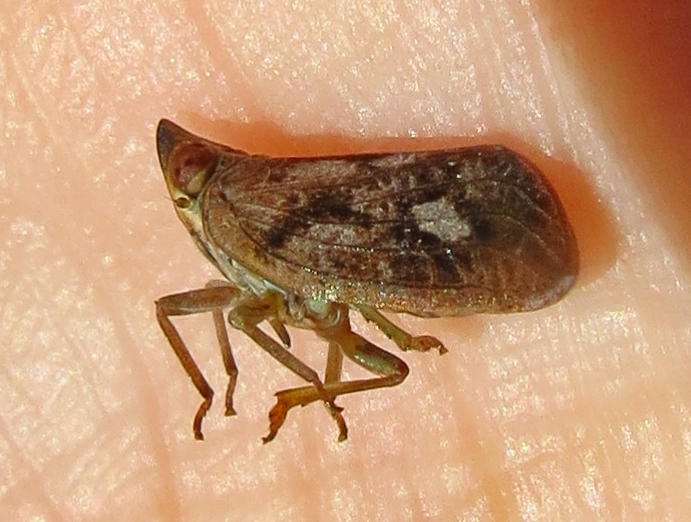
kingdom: Animalia
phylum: Arthropoda
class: Insecta
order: Hemiptera
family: Issidae
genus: Fowlerium
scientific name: Fowlerium acutum
